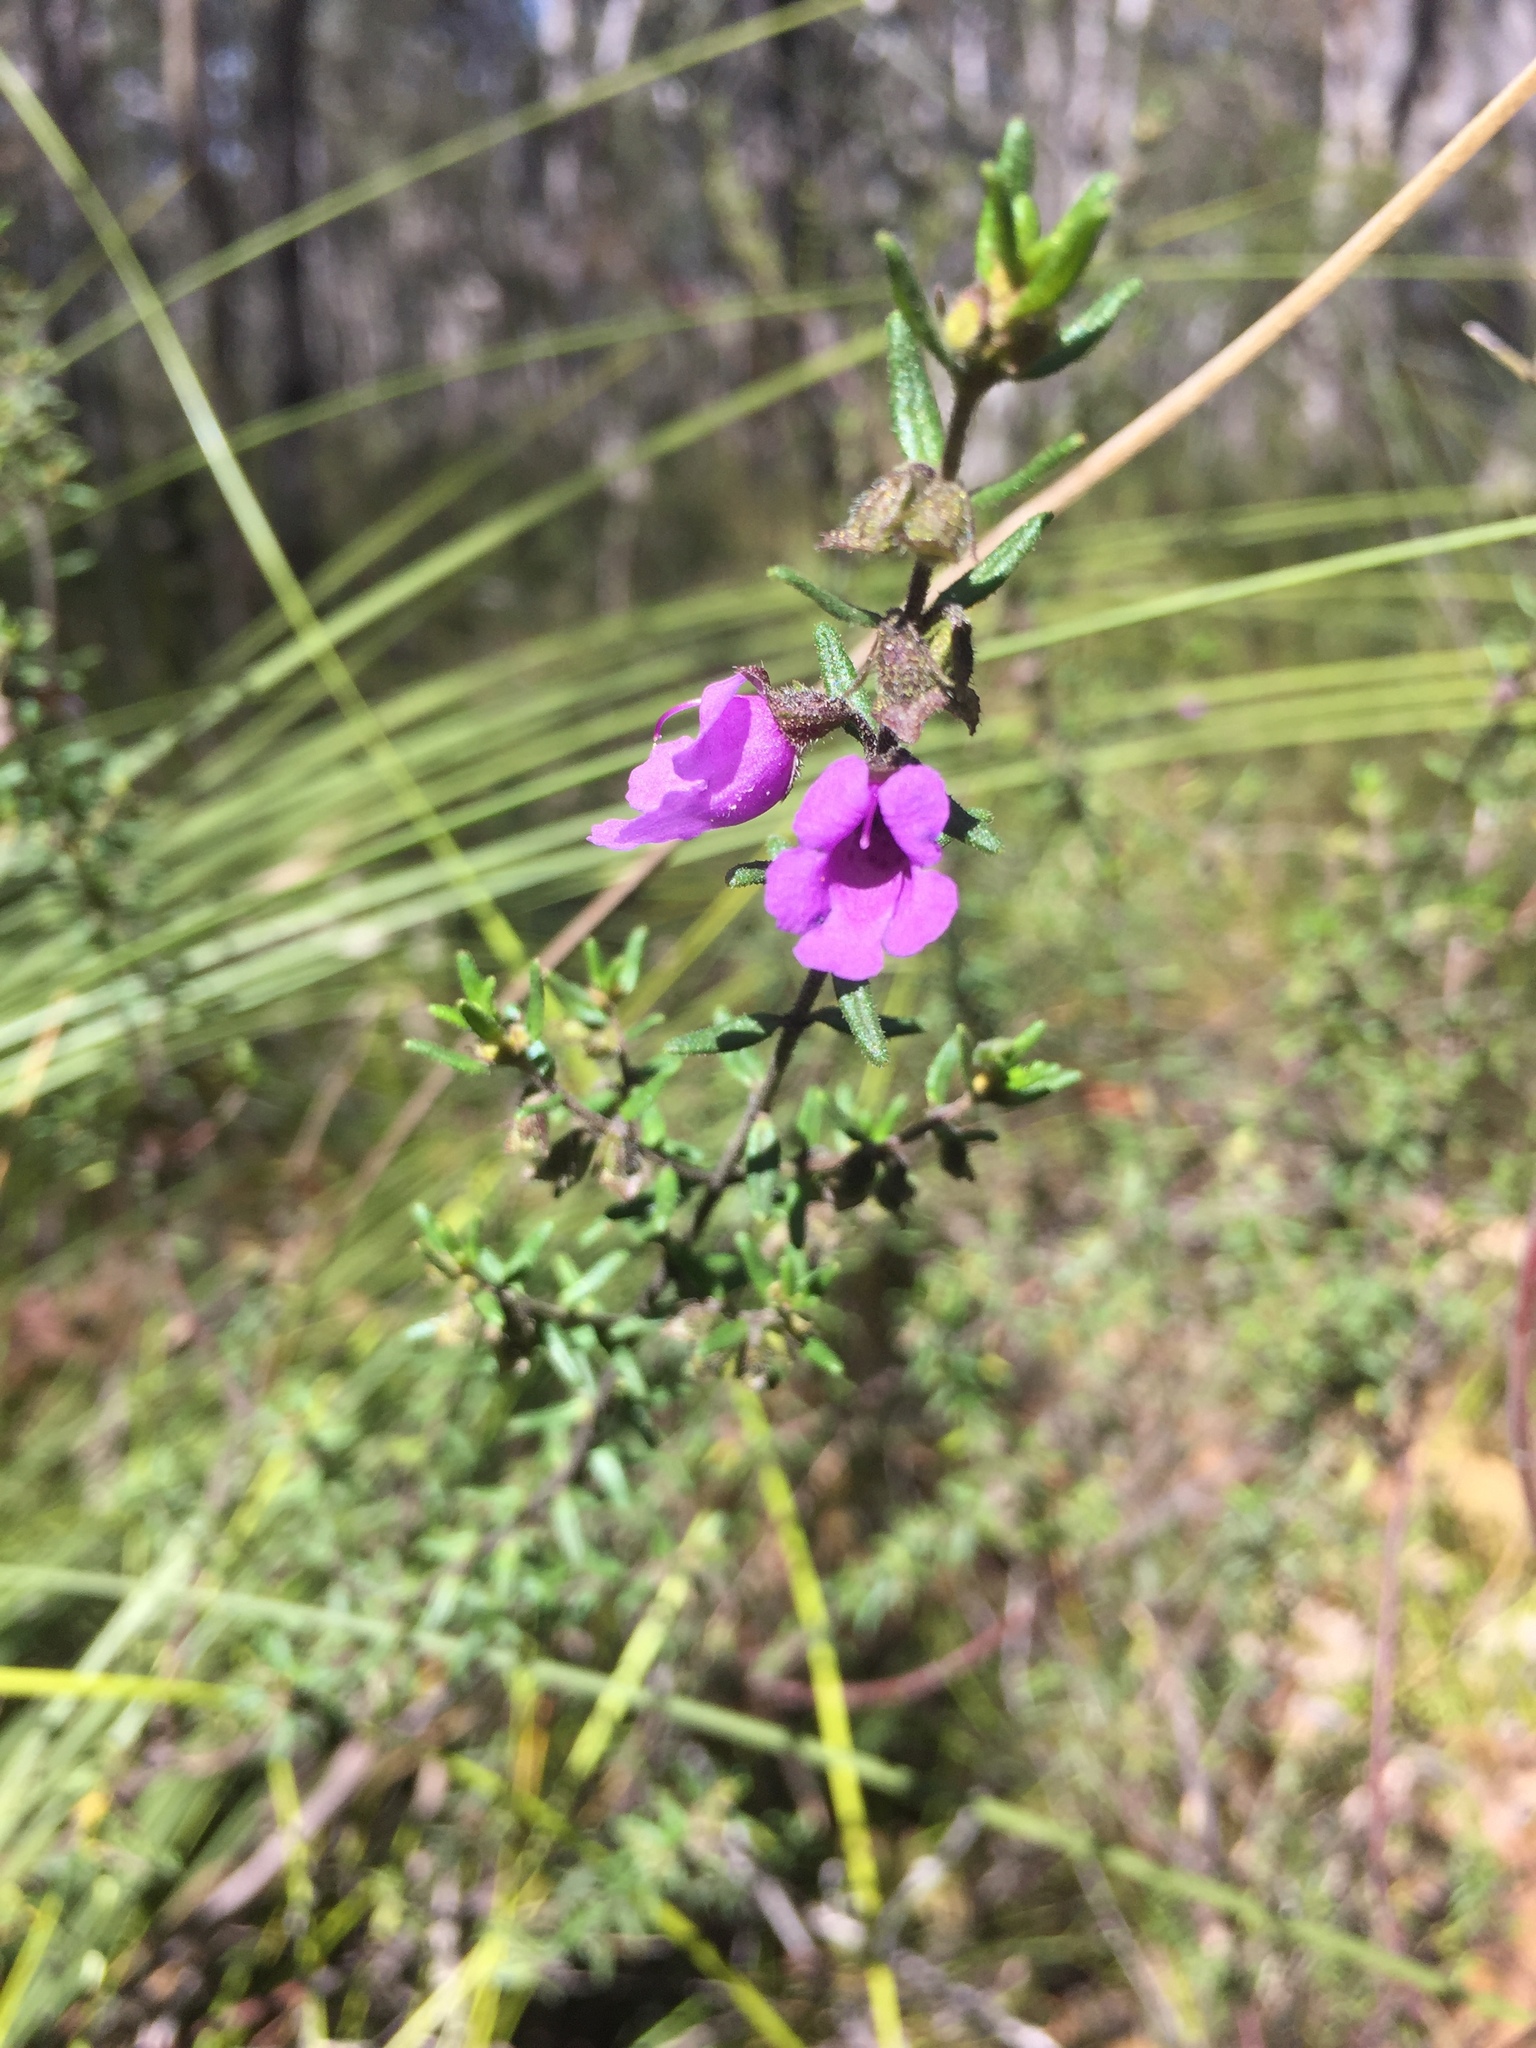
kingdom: Plantae
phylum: Tracheophyta
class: Magnoliopsida
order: Lamiales
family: Lamiaceae
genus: Prostanthera
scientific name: Prostanthera howelliae
